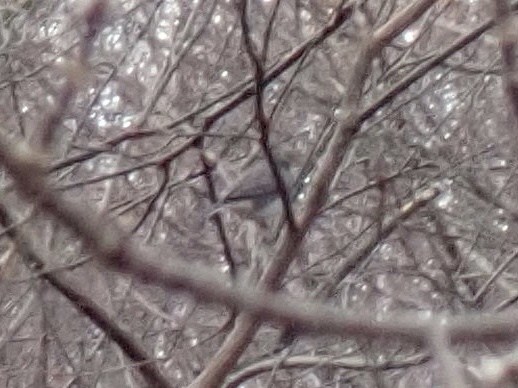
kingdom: Animalia
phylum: Chordata
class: Aves
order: Passeriformes
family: Passerellidae
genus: Junco
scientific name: Junco hyemalis
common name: Dark-eyed junco
